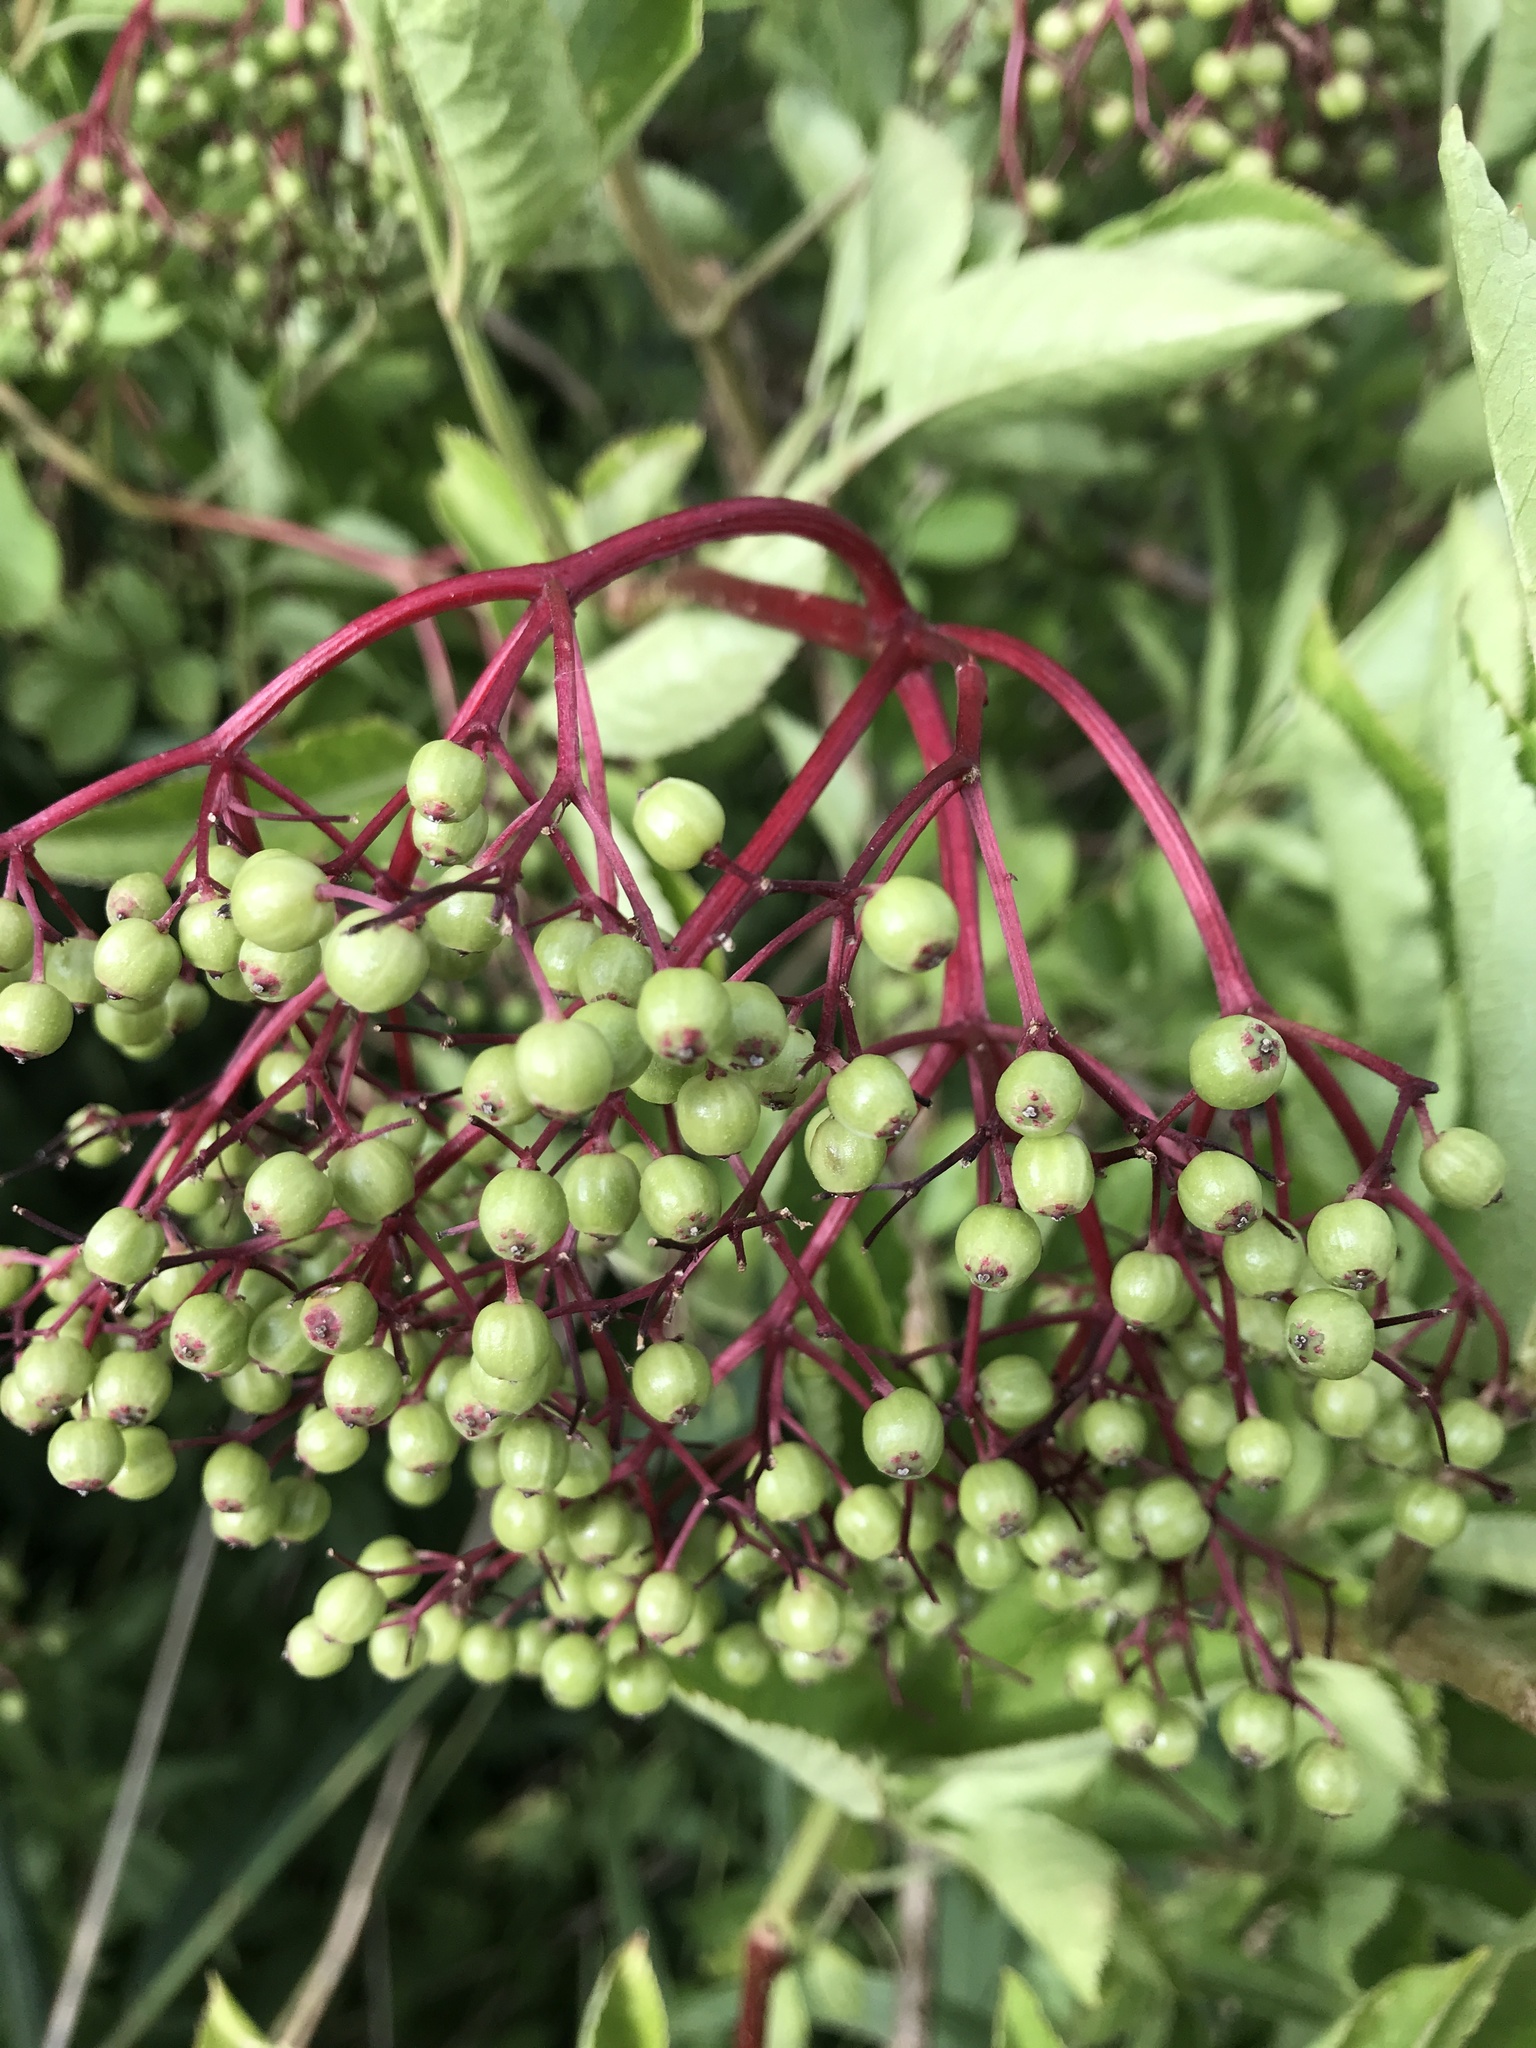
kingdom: Plantae
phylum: Tracheophyta
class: Magnoliopsida
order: Dipsacales
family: Viburnaceae
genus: Sambucus
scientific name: Sambucus nigra
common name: Elder
